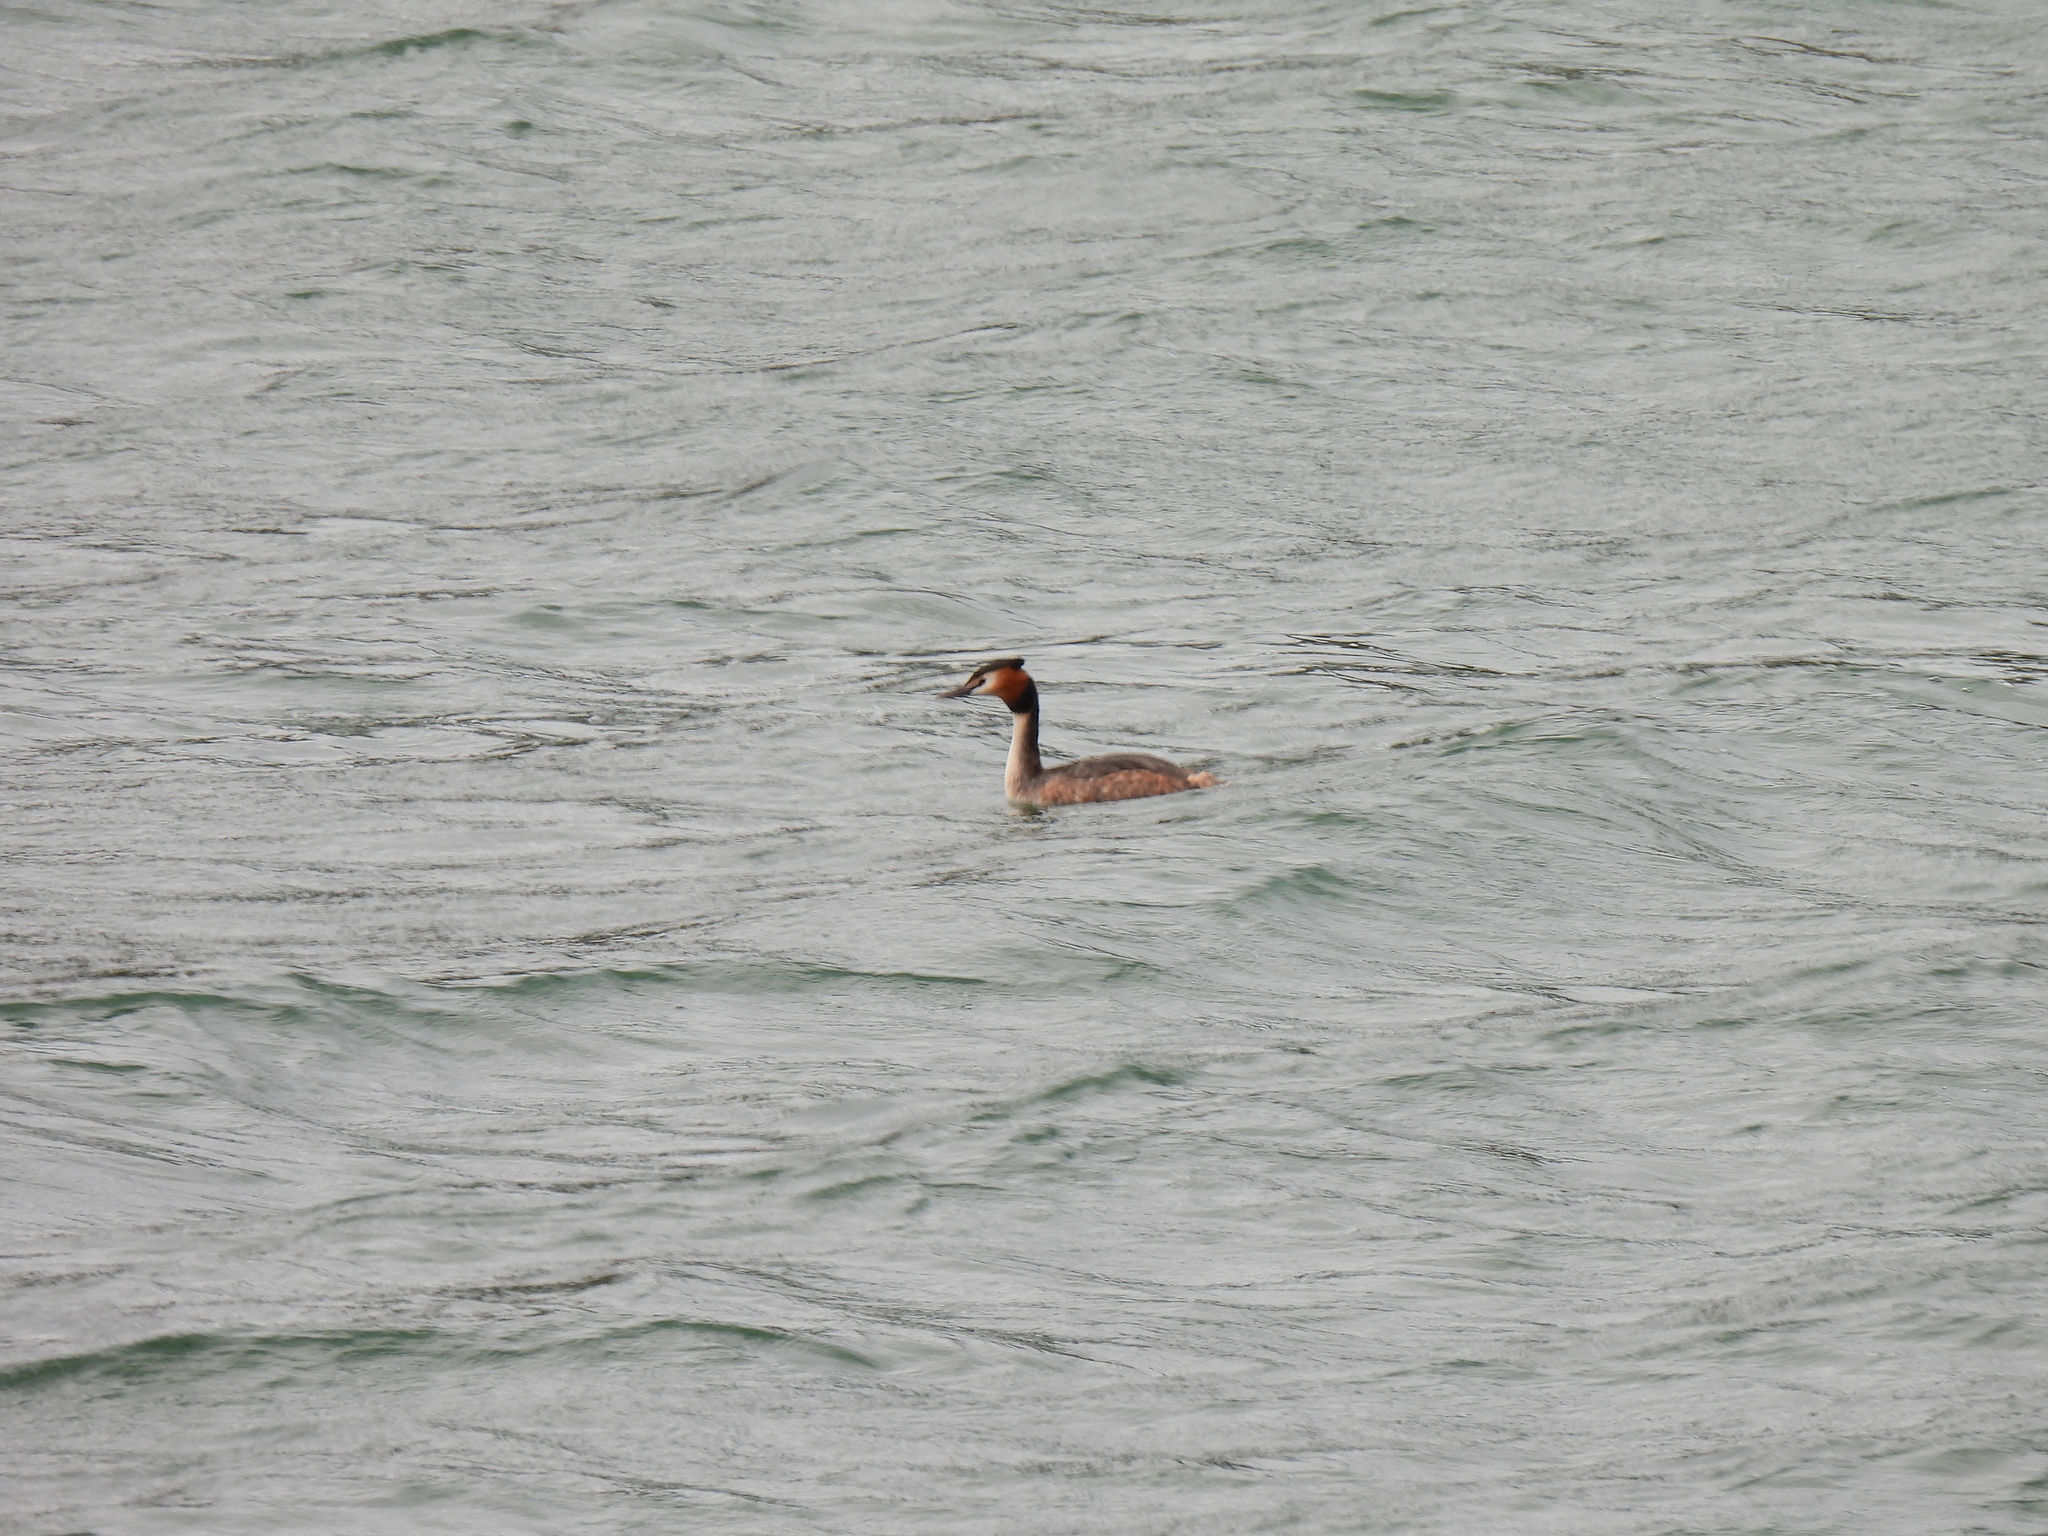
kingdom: Animalia
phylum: Chordata
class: Aves
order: Podicipediformes
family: Podicipedidae
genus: Podiceps
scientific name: Podiceps cristatus
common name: Great crested grebe
